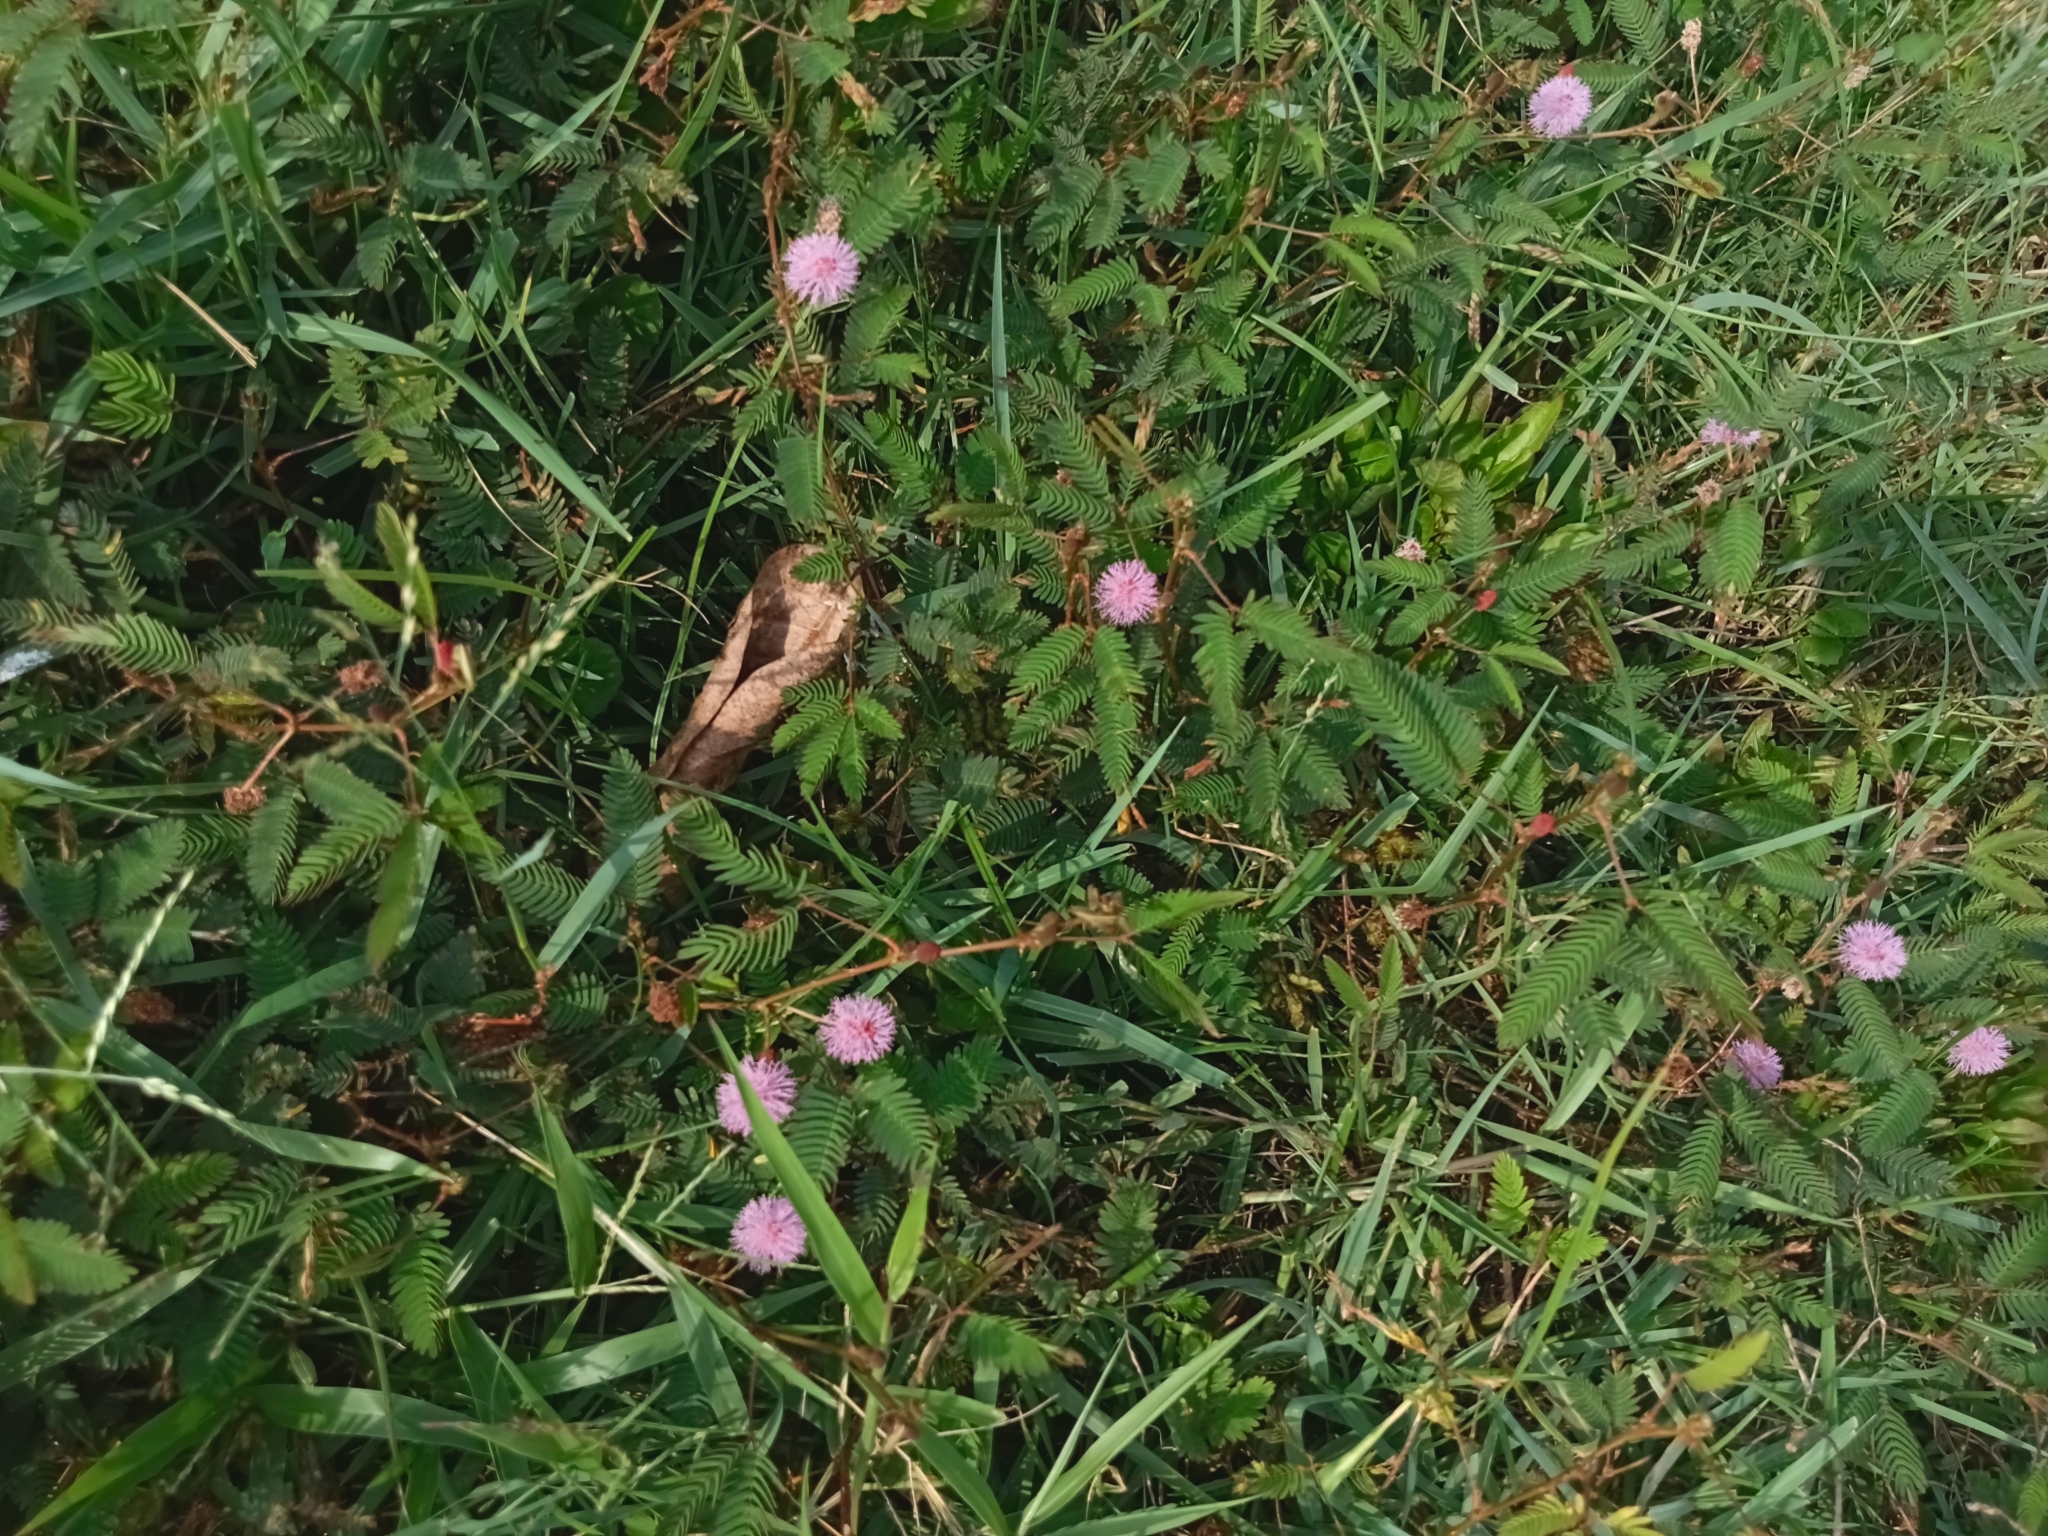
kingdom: Plantae
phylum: Tracheophyta
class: Magnoliopsida
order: Fabales
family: Fabaceae
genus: Mimosa
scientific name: Mimosa pudica
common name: Sensitive plant
